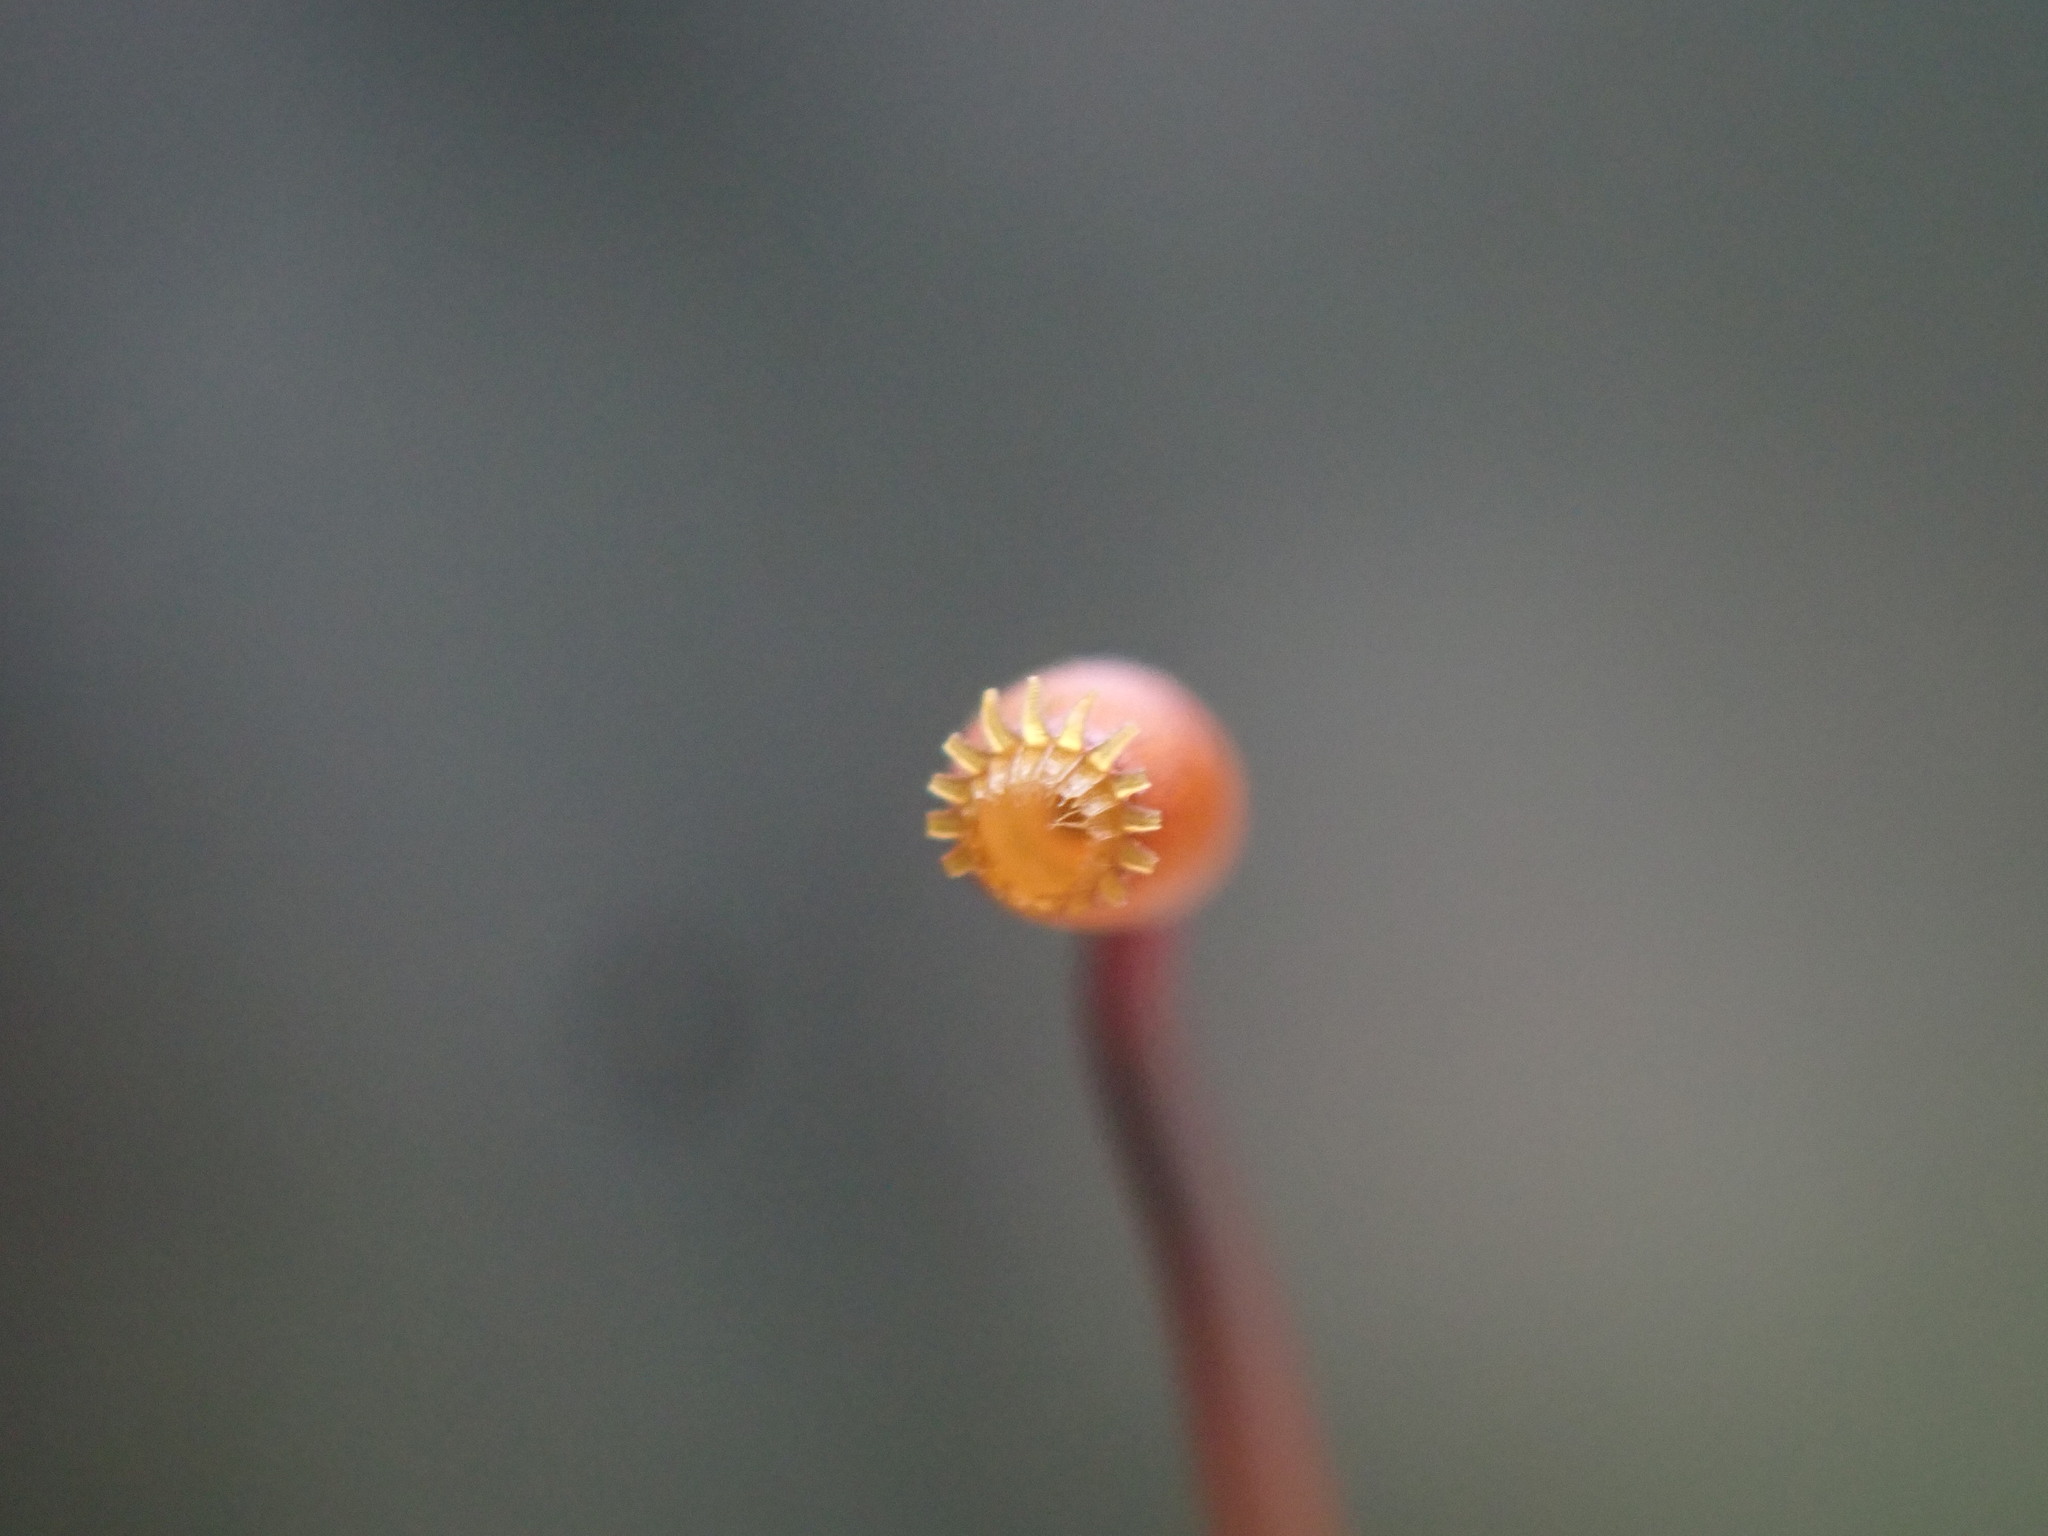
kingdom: Plantae
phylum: Bryophyta
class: Bryopsida
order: Hypnales
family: Brachytheciaceae
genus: Claopodium
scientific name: Claopodium crispifolium
